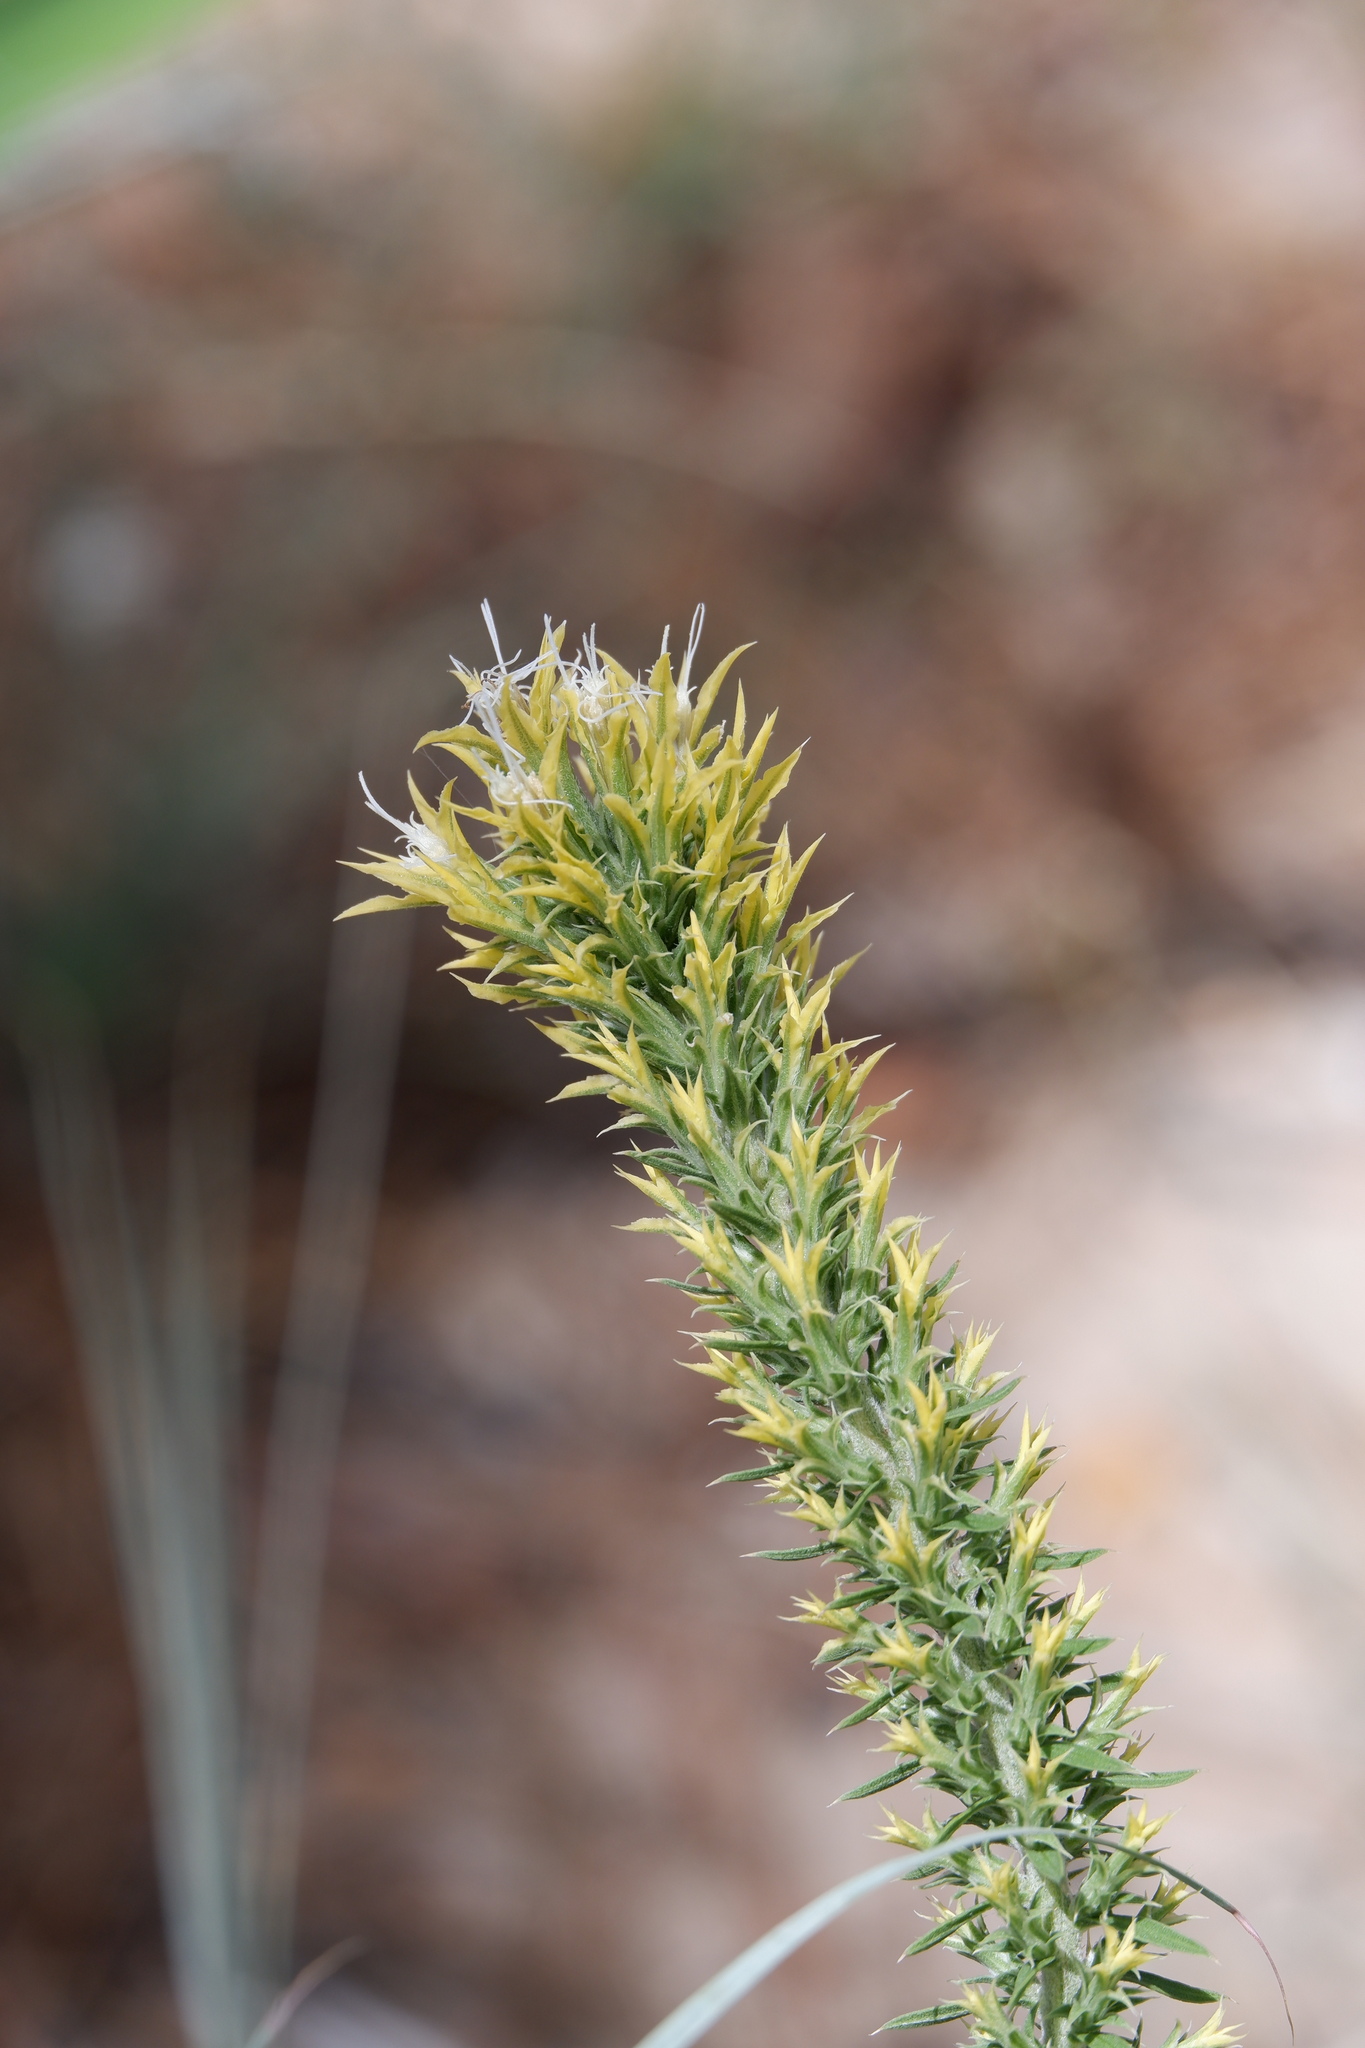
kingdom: Plantae
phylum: Tracheophyta
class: Magnoliopsida
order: Asterales
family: Asteraceae
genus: Liatris
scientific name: Liatris bridgesii
